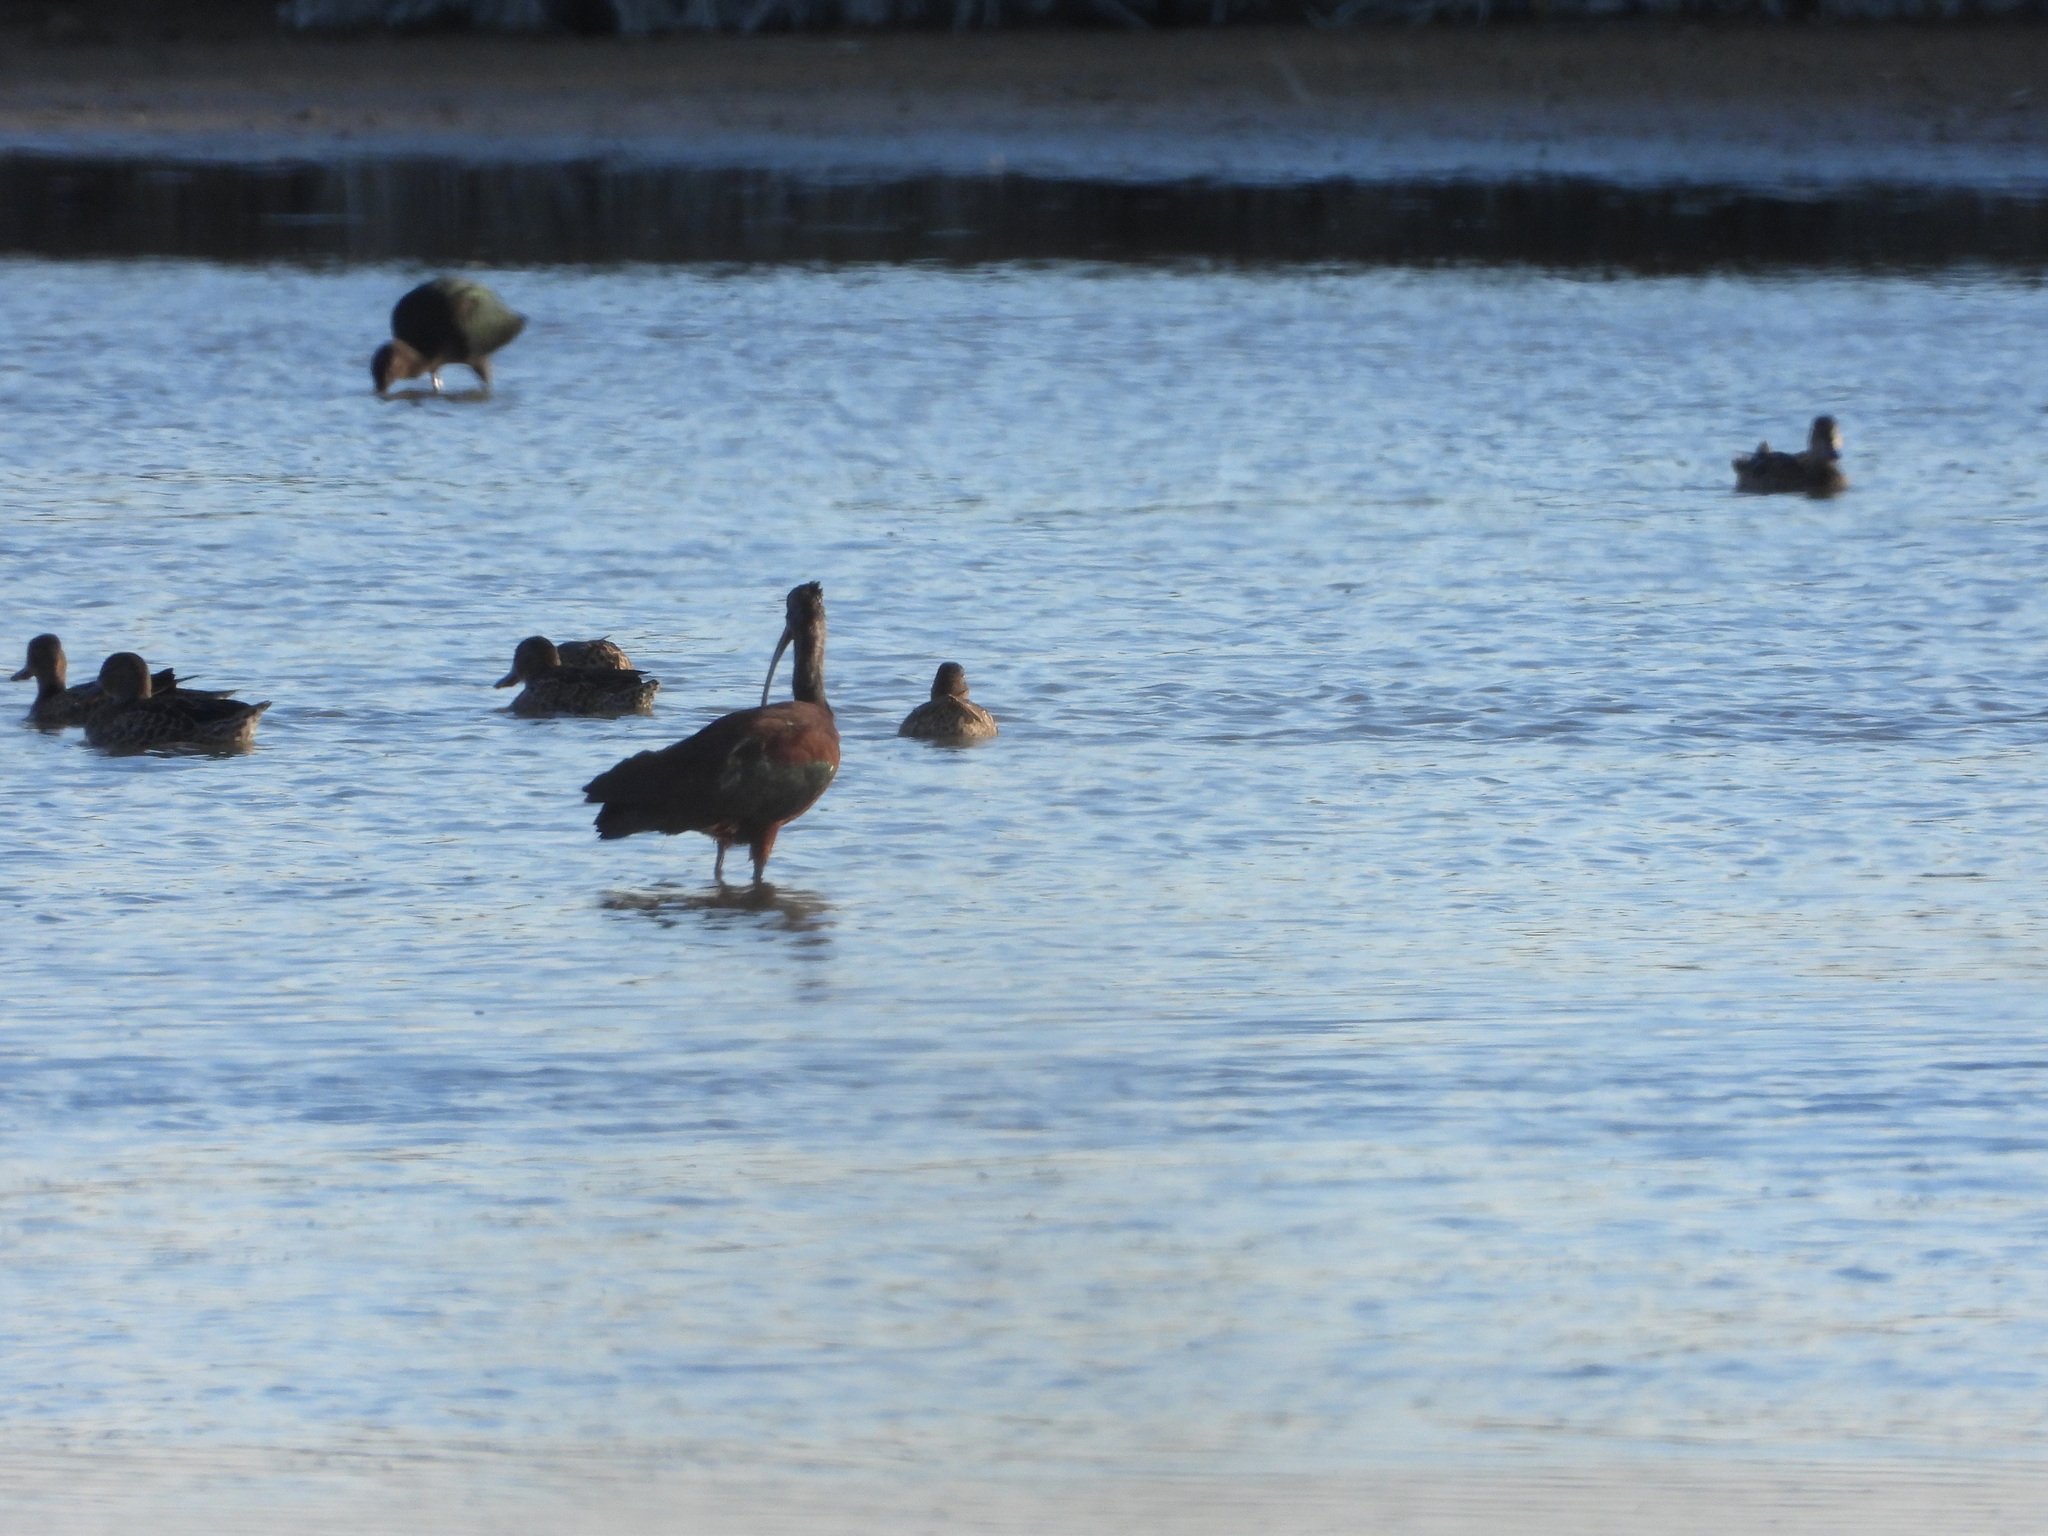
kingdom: Animalia
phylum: Chordata
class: Aves
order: Pelecaniformes
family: Threskiornithidae
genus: Plegadis
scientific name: Plegadis chihi
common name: White-faced ibis
